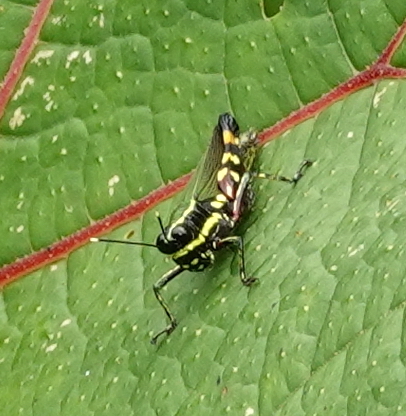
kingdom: Animalia
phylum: Arthropoda
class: Insecta
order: Orthoptera
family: Acrididae
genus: Tetrataenia
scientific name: Tetrataenia surinama
